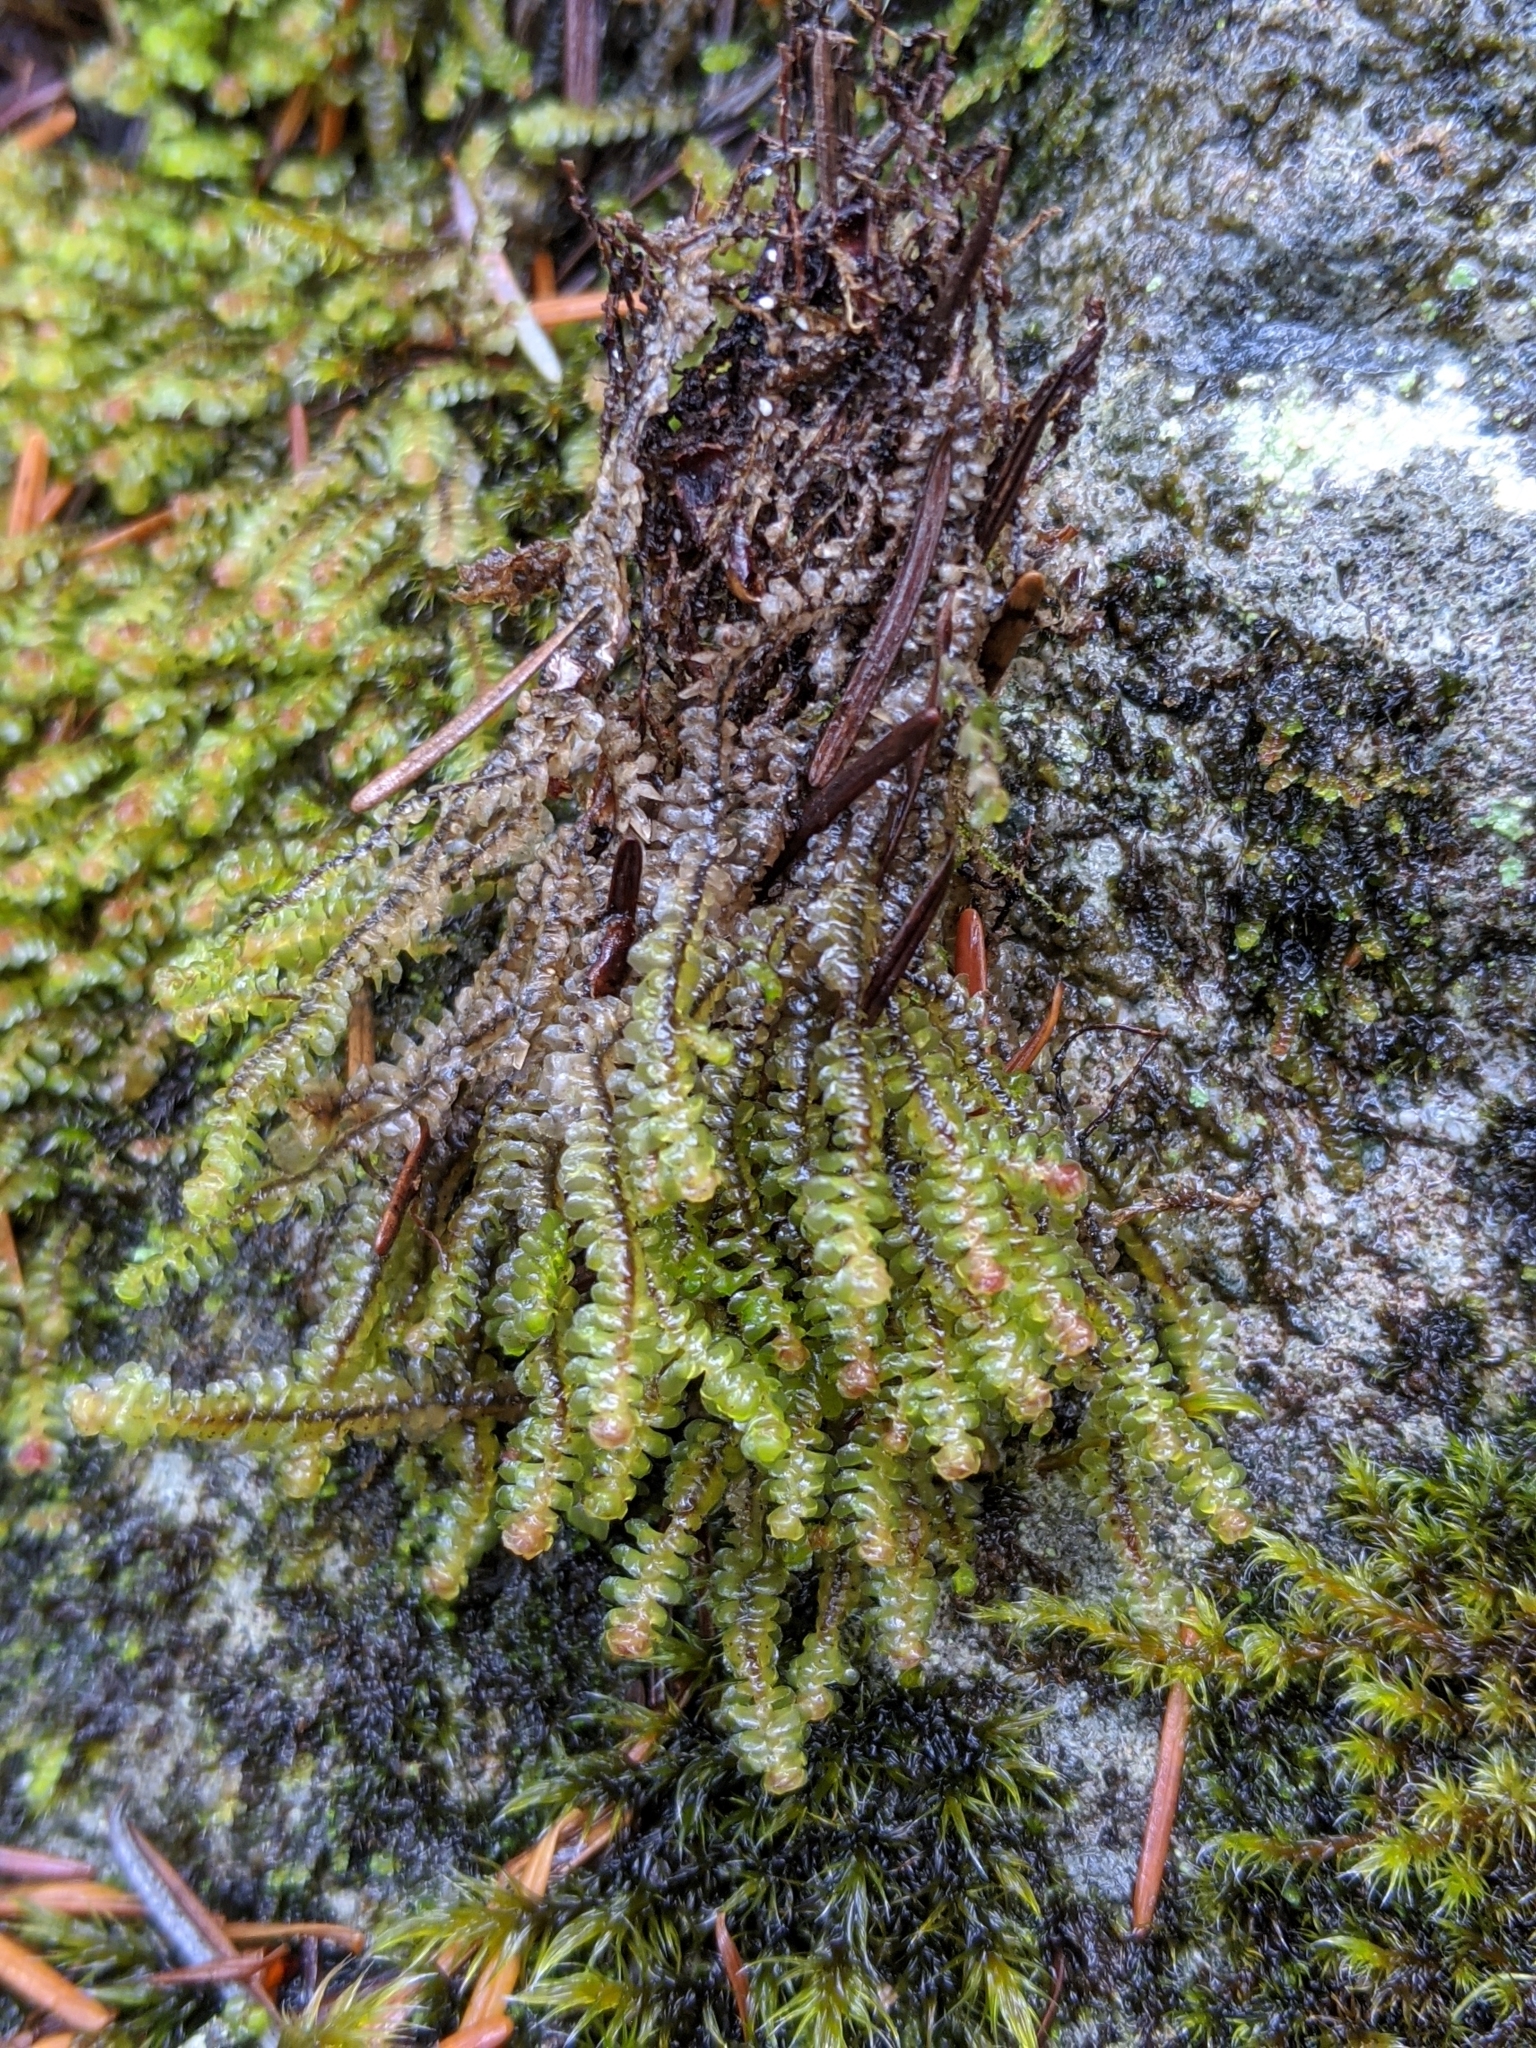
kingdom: Plantae
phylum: Marchantiophyta
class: Jungermanniopsida
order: Jungermanniales
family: Scapaniaceae
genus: Scapania
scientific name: Scapania americana
